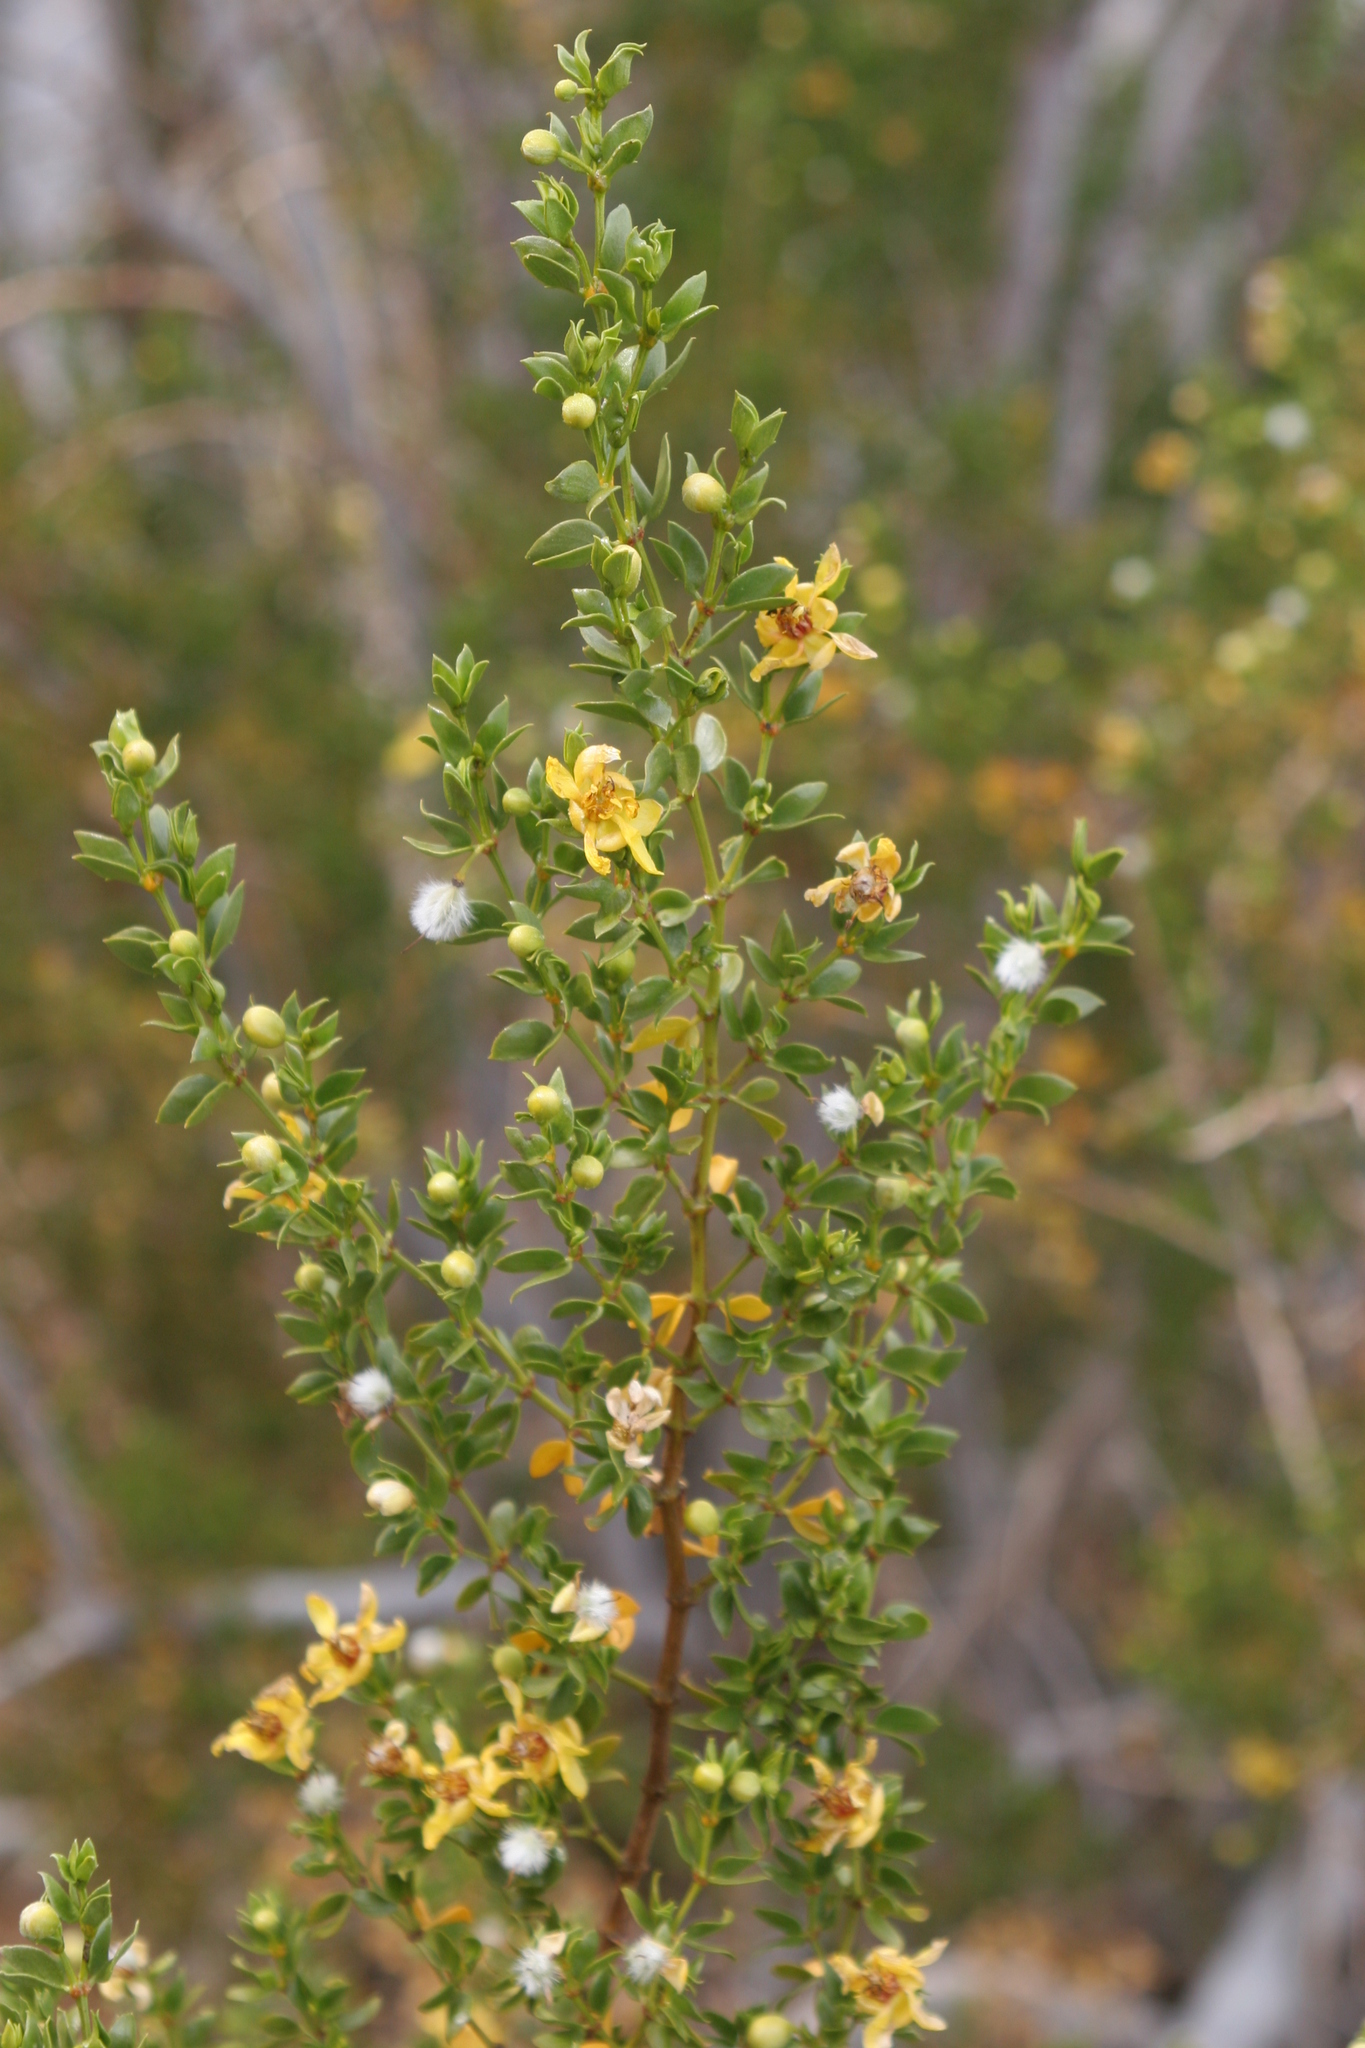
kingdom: Plantae
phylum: Tracheophyta
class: Magnoliopsida
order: Zygophyllales
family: Zygophyllaceae
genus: Larrea
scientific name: Larrea tridentata
